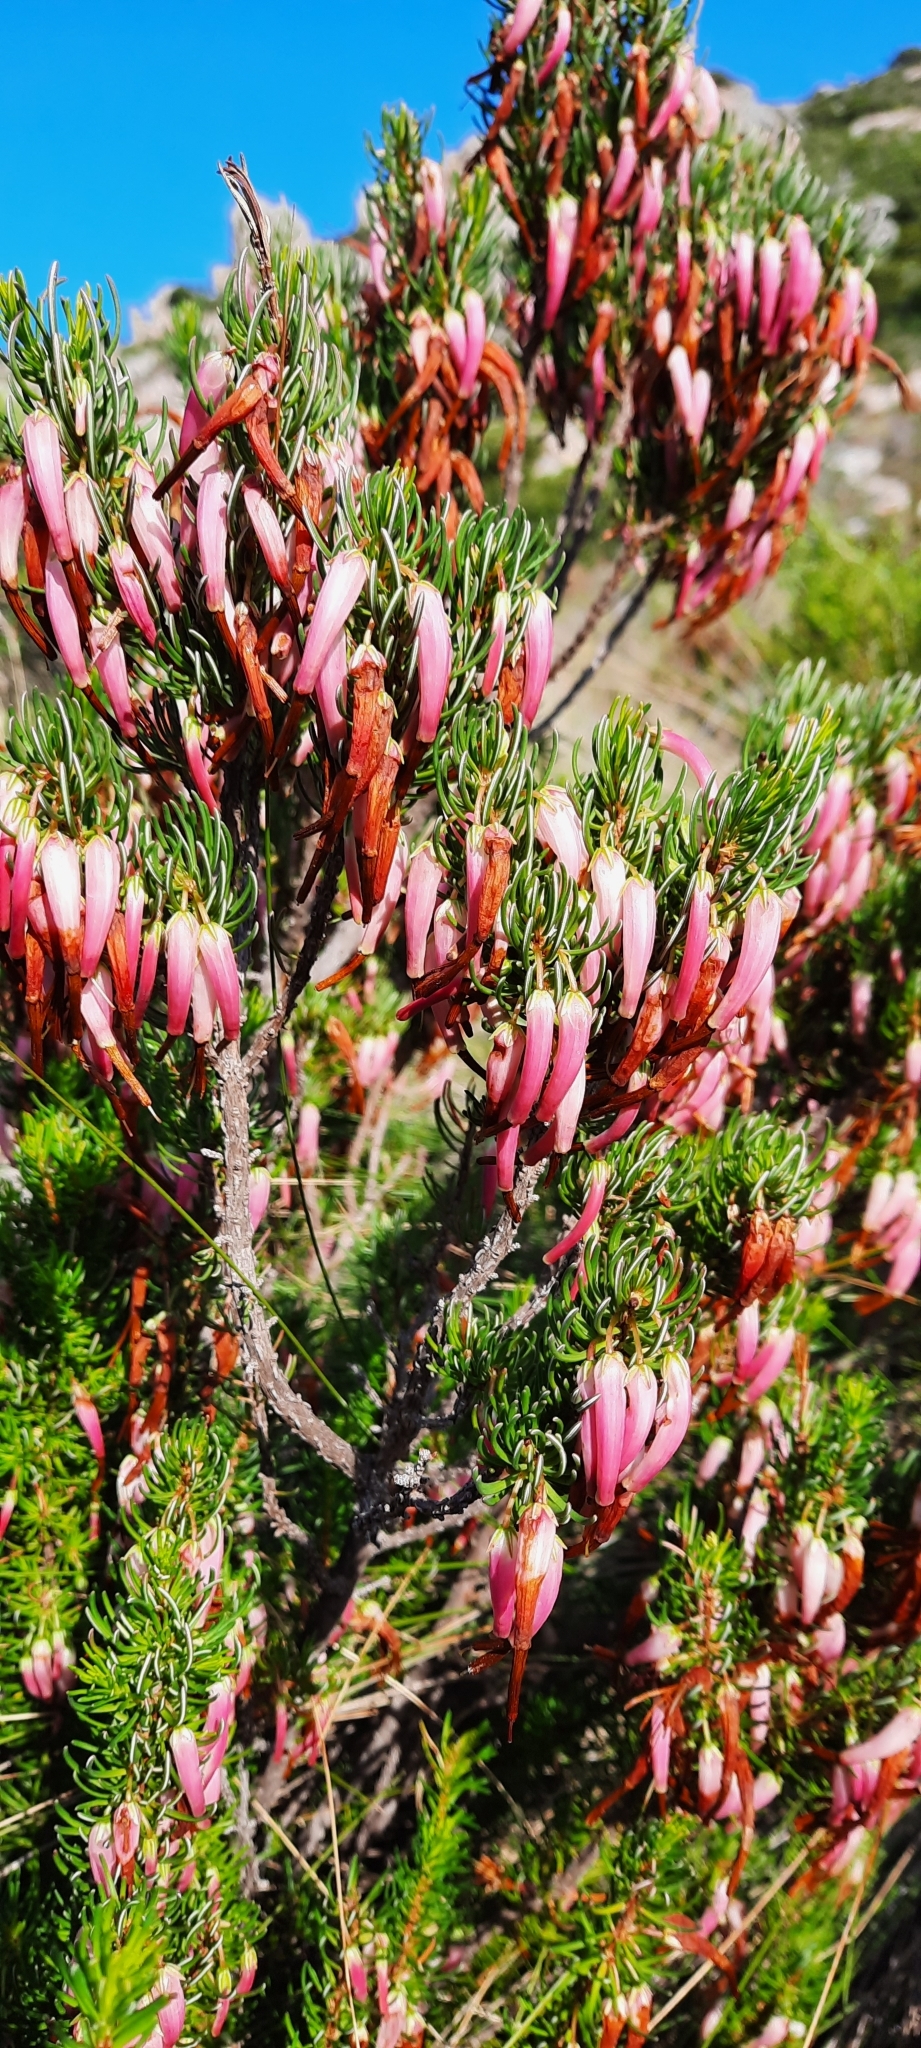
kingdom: Plantae
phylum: Tracheophyta
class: Magnoliopsida
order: Ericales
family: Ericaceae
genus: Erica
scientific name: Erica plukenetii
